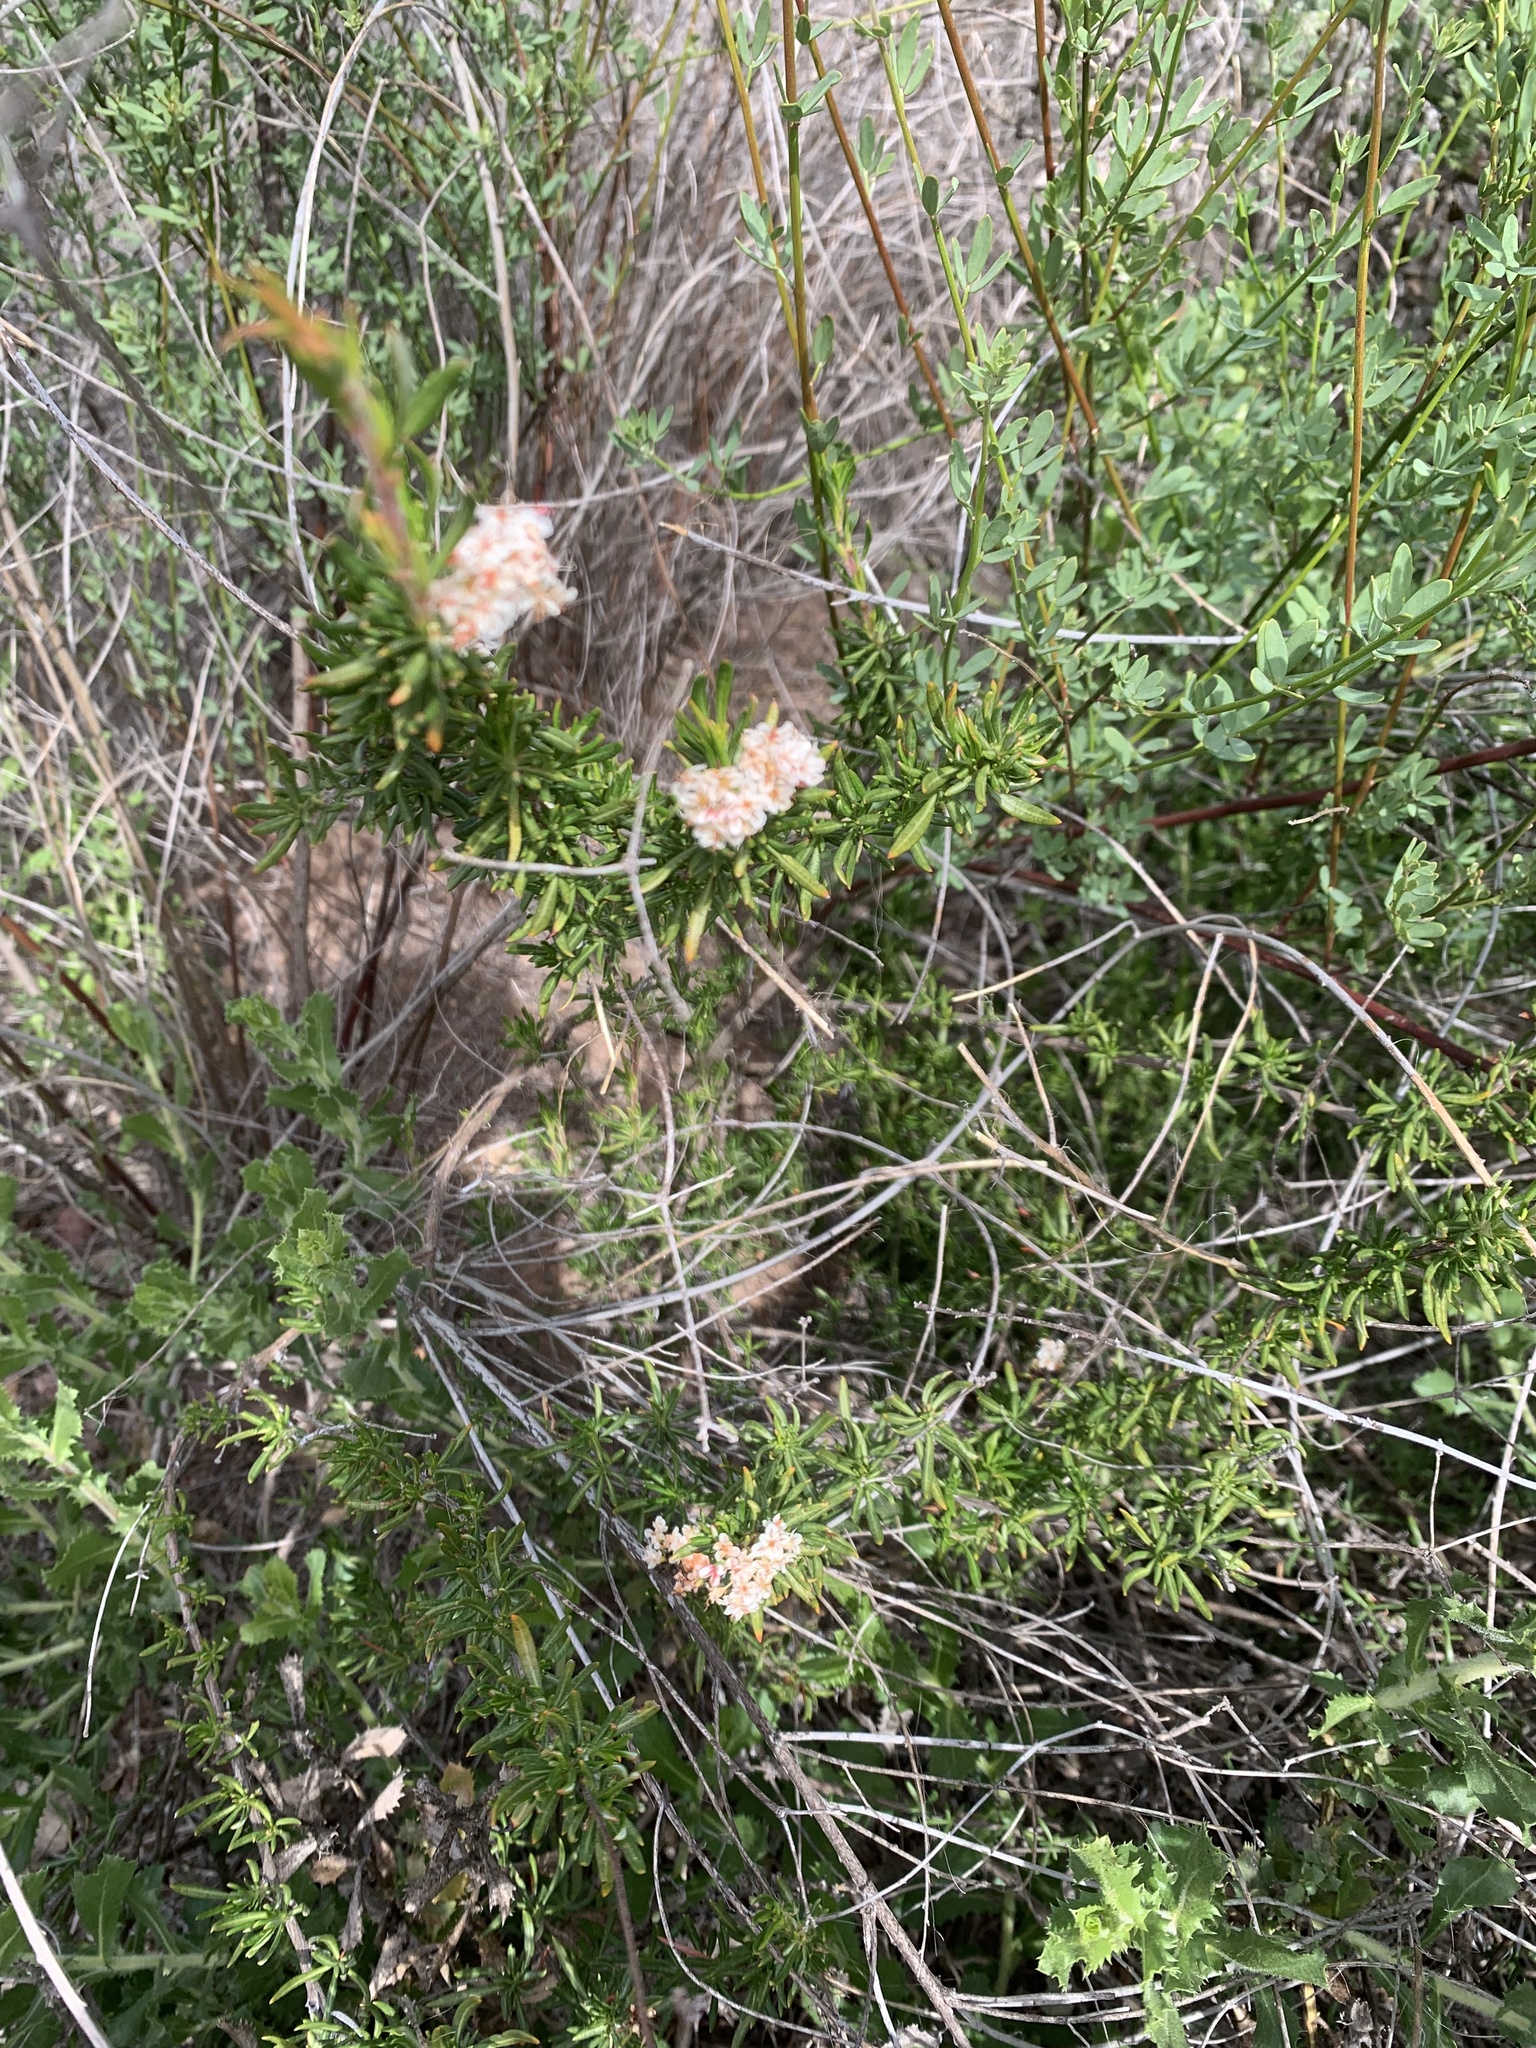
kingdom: Plantae
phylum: Tracheophyta
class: Magnoliopsida
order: Caryophyllales
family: Polygonaceae
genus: Eriogonum
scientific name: Eriogonum fasciculatum
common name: California wild buckwheat
